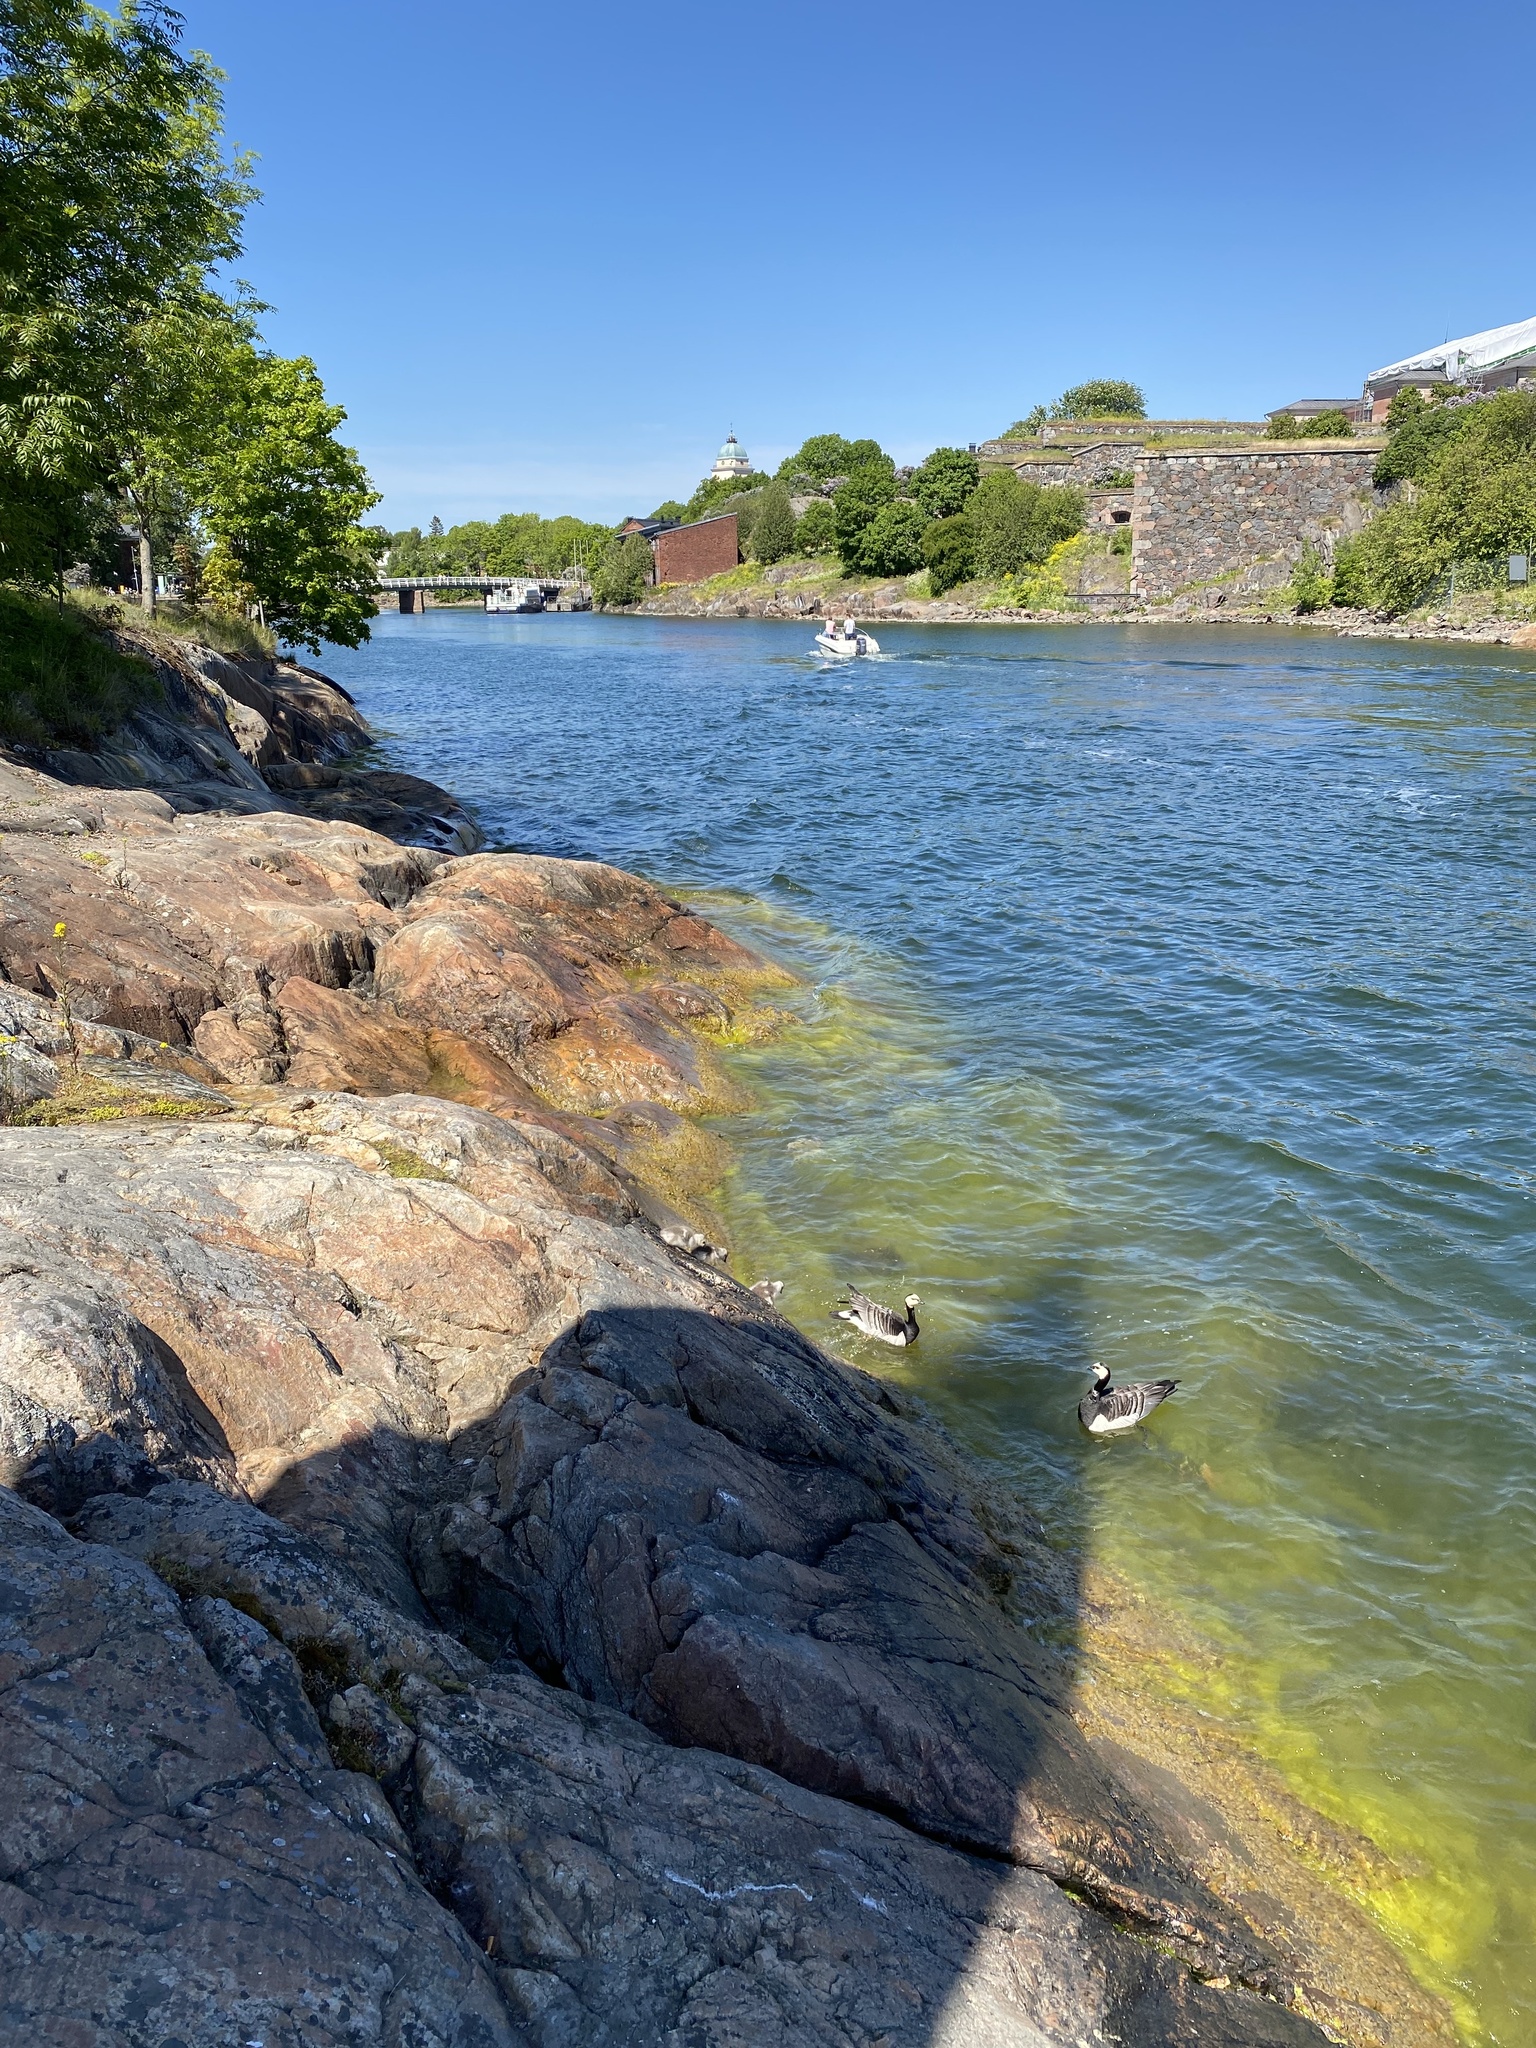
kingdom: Animalia
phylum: Chordata
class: Aves
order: Anseriformes
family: Anatidae
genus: Branta
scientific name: Branta leucopsis
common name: Barnacle goose
